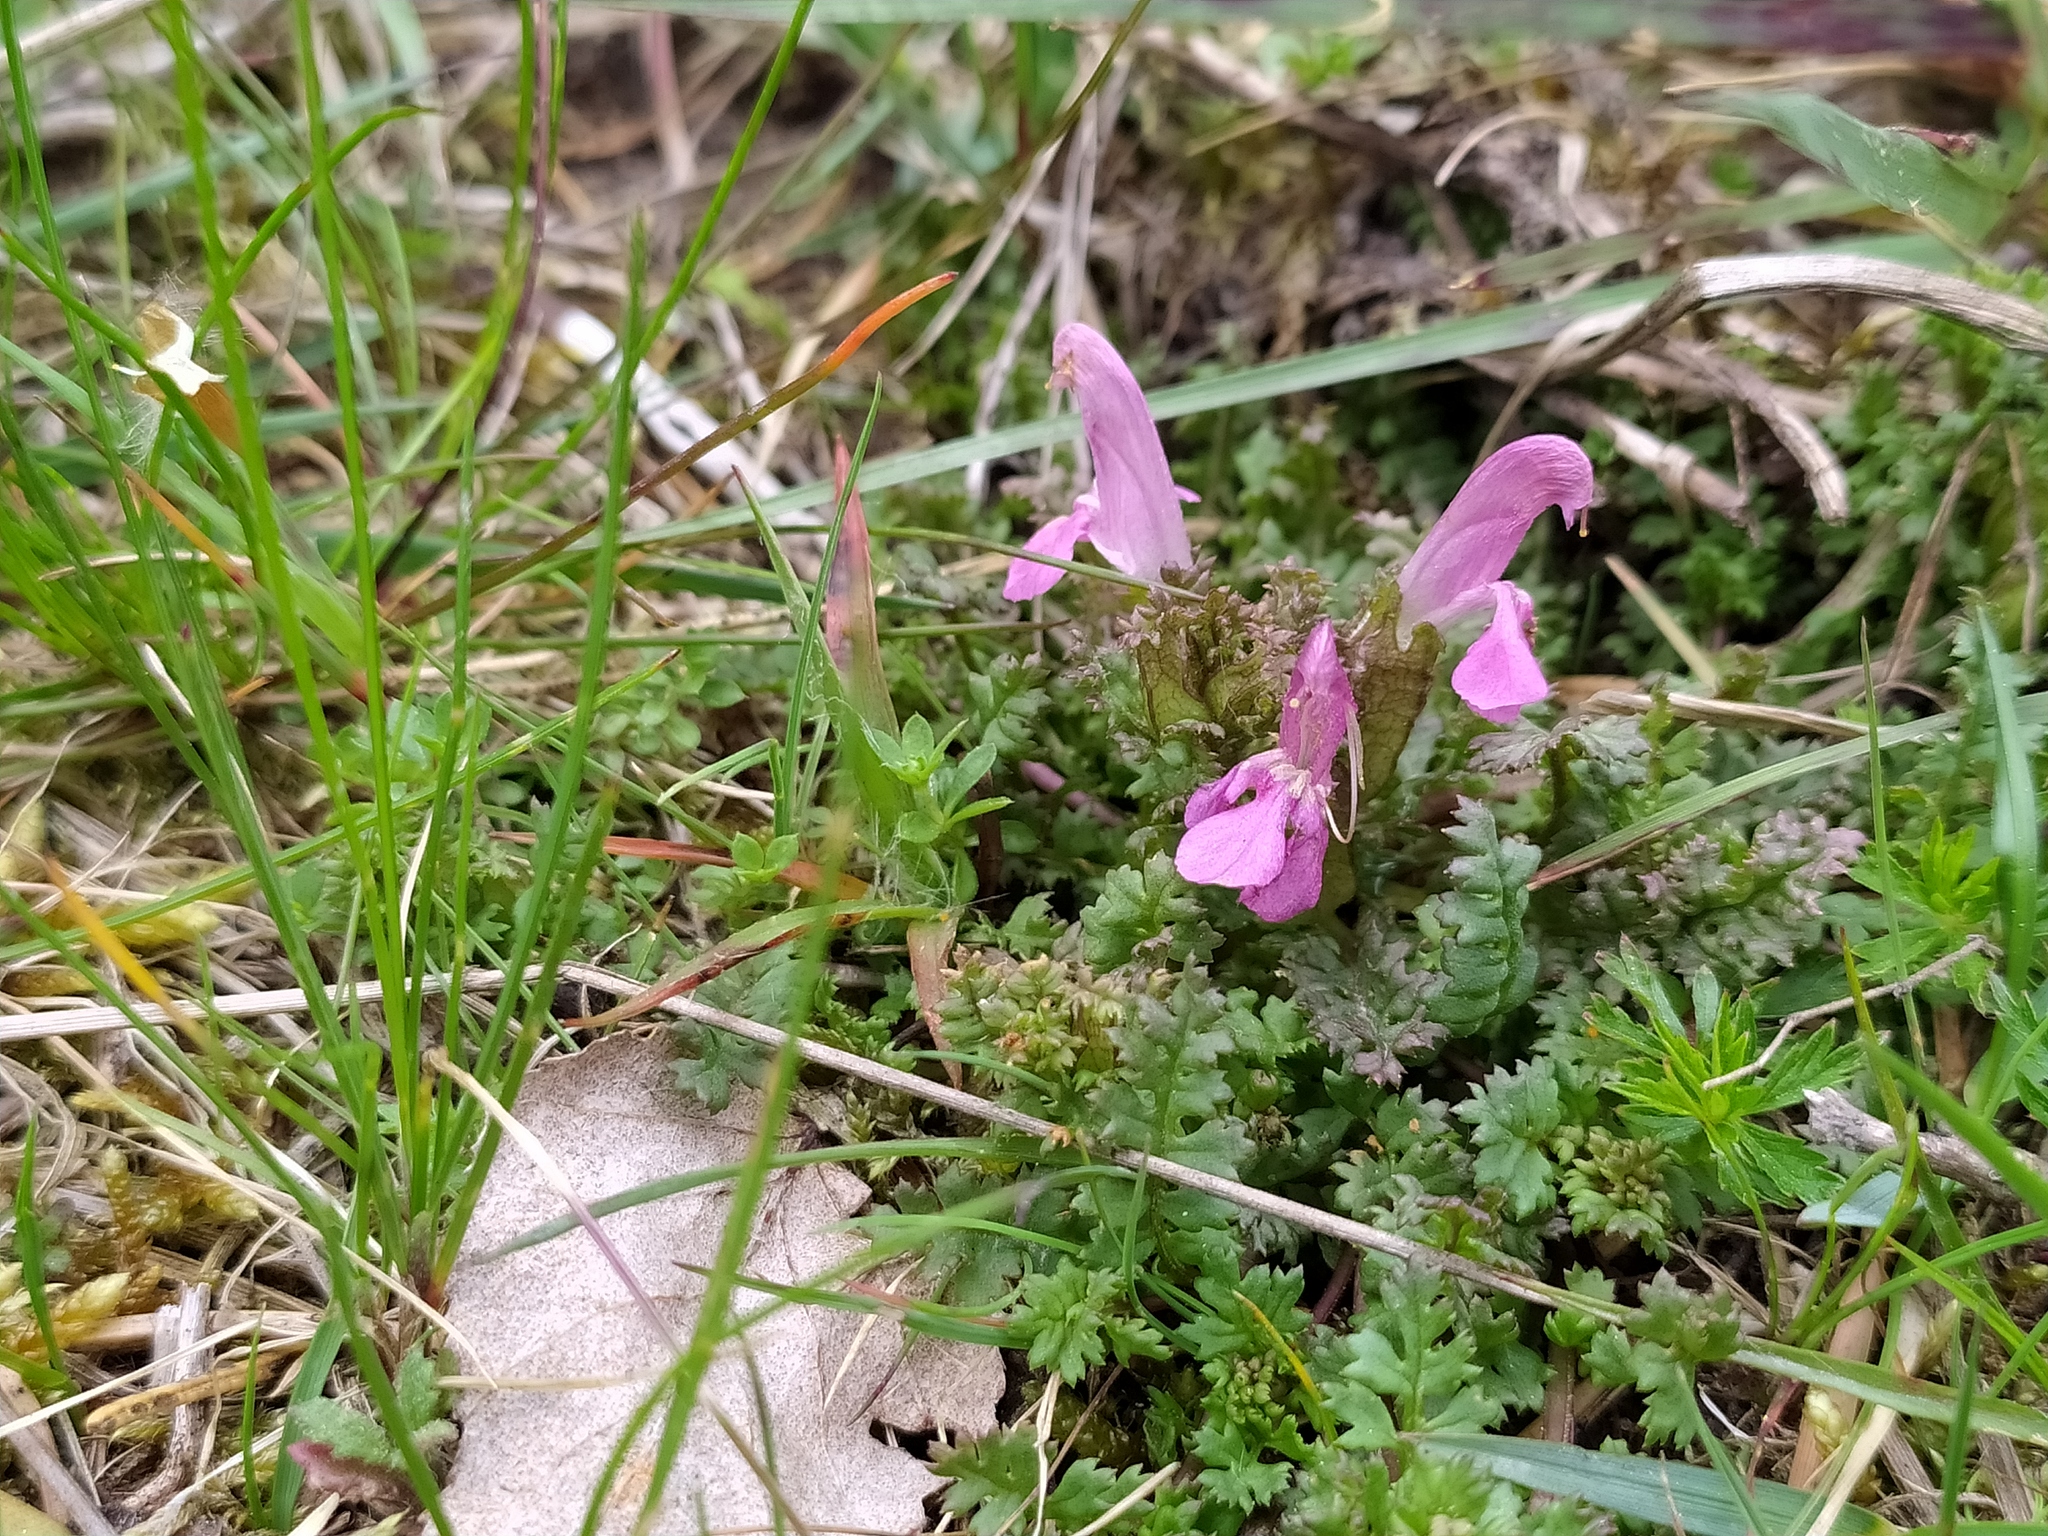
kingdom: Plantae
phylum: Tracheophyta
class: Magnoliopsida
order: Lamiales
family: Orobanchaceae
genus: Pedicularis
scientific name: Pedicularis sylvatica
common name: Lousewort
